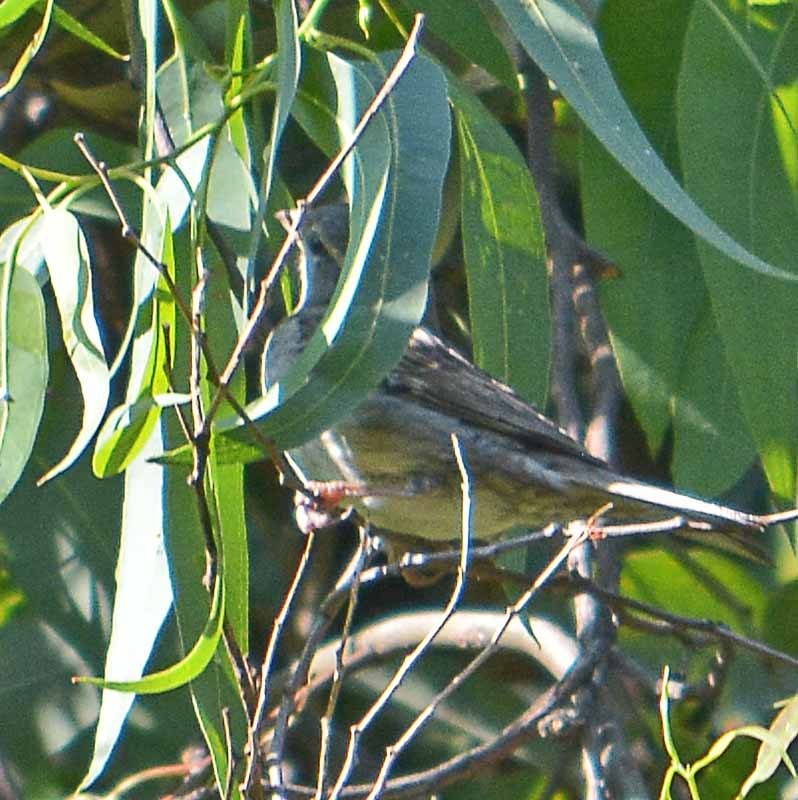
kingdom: Animalia
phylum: Chordata
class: Aves
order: Passeriformes
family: Passeridae
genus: Passer
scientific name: Passer domesticus
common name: House sparrow
